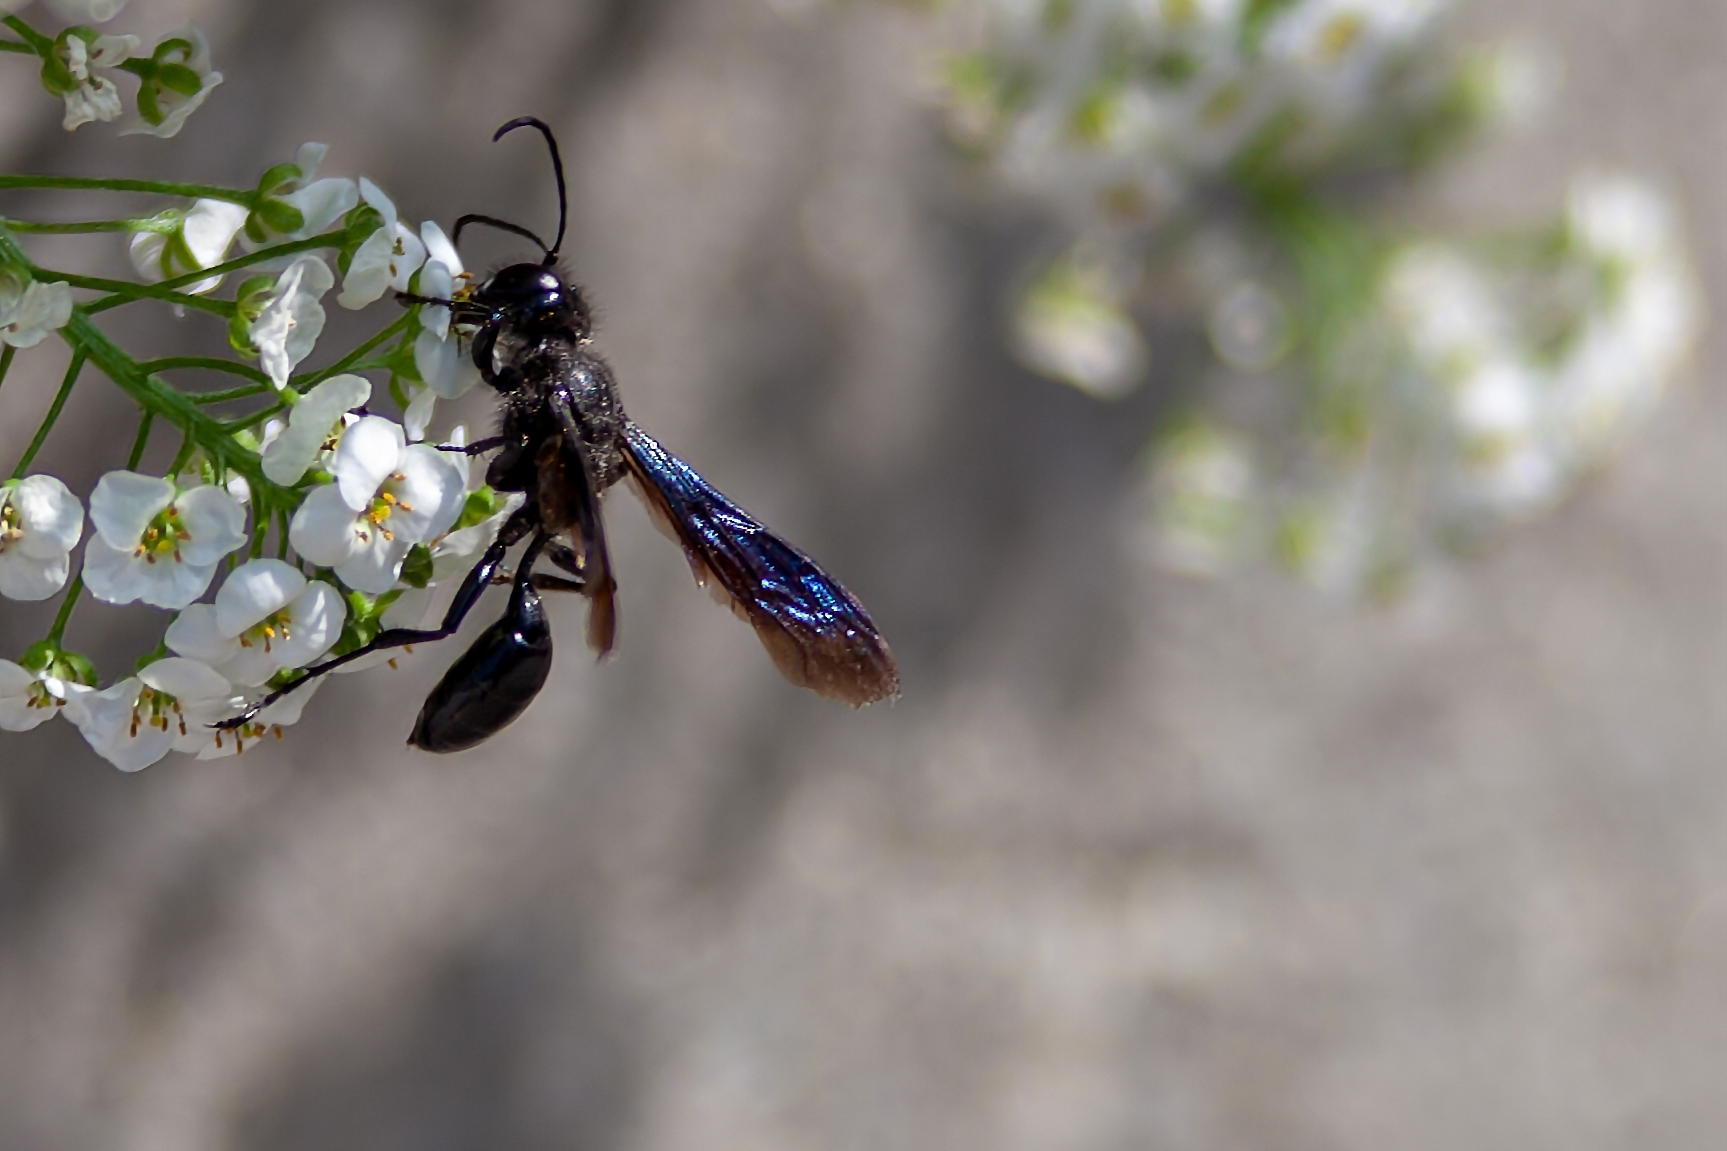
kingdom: Animalia
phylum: Arthropoda
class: Insecta
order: Hymenoptera
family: Sphecidae
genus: Isodontia
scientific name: Isodontia philadelphica
